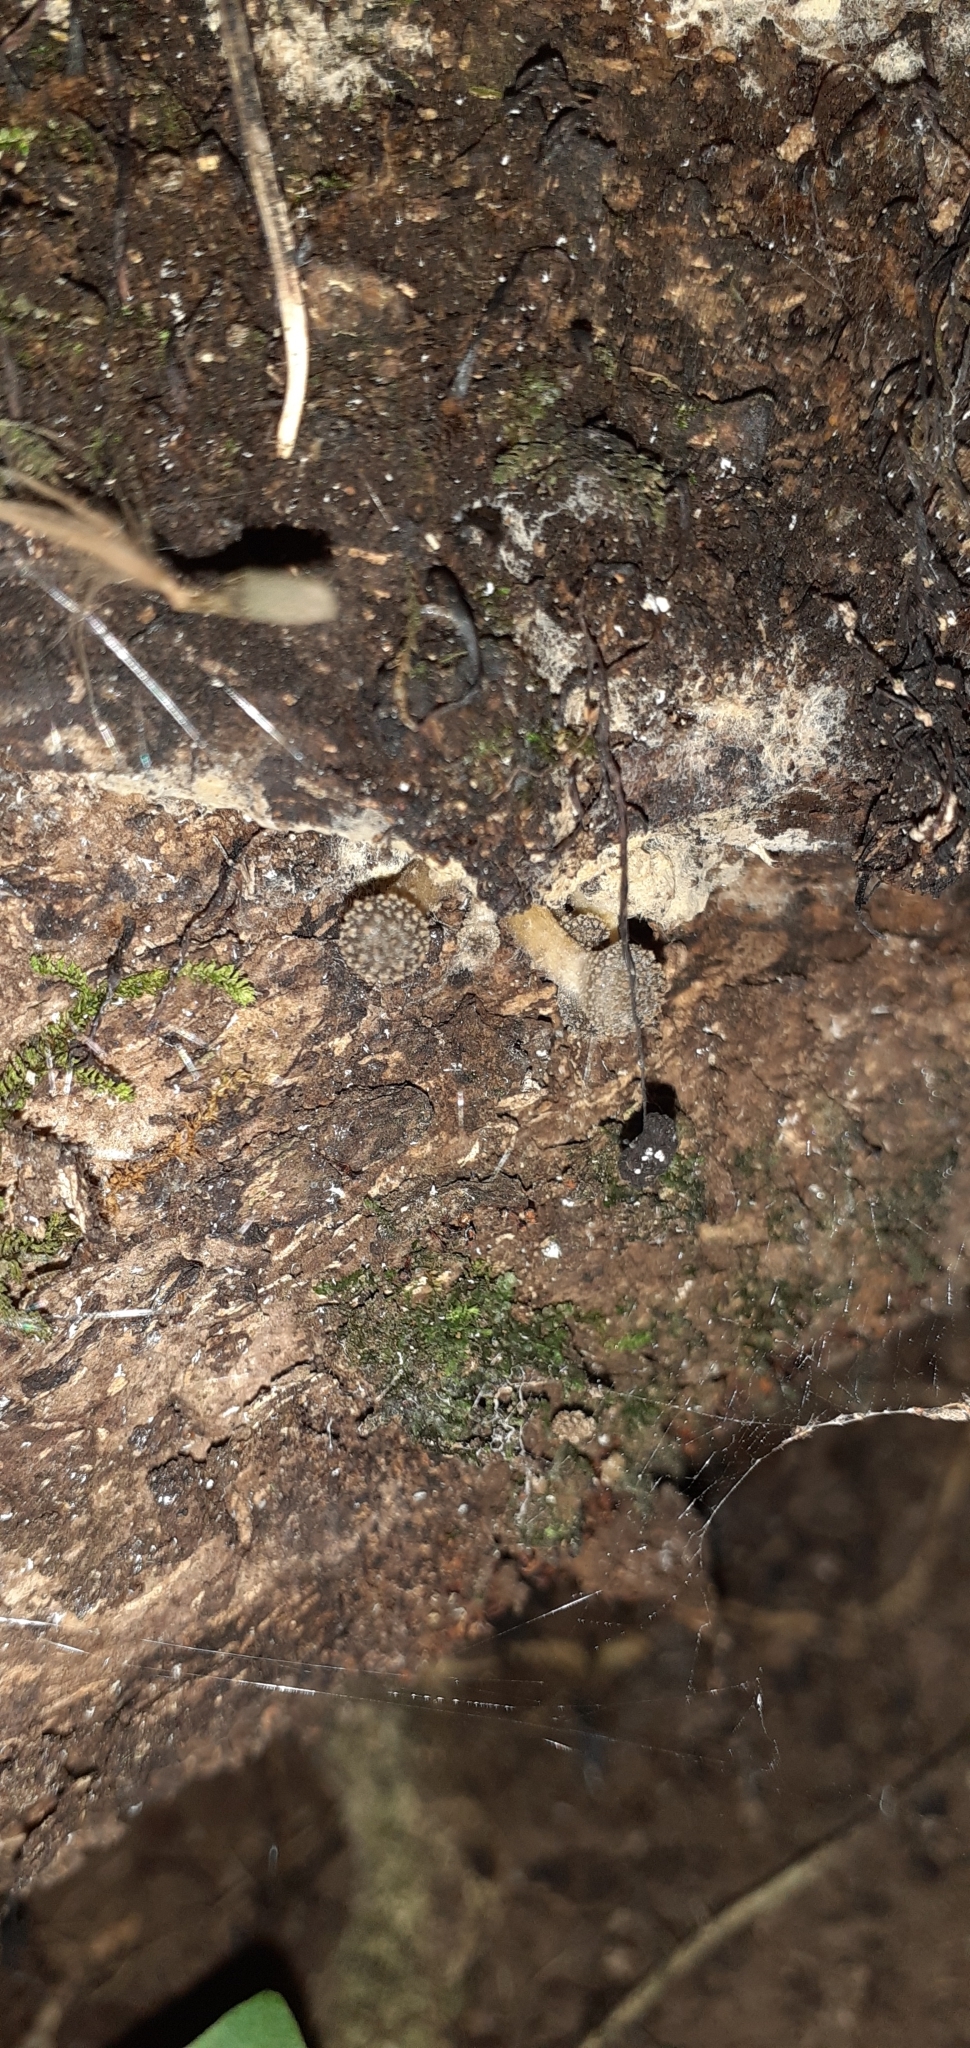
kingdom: Fungi
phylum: Basidiomycota
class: Agaricomycetes
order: Agaricales
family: Physalacriaceae
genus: Armillaria
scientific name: Armillaria novae-zelandiae
